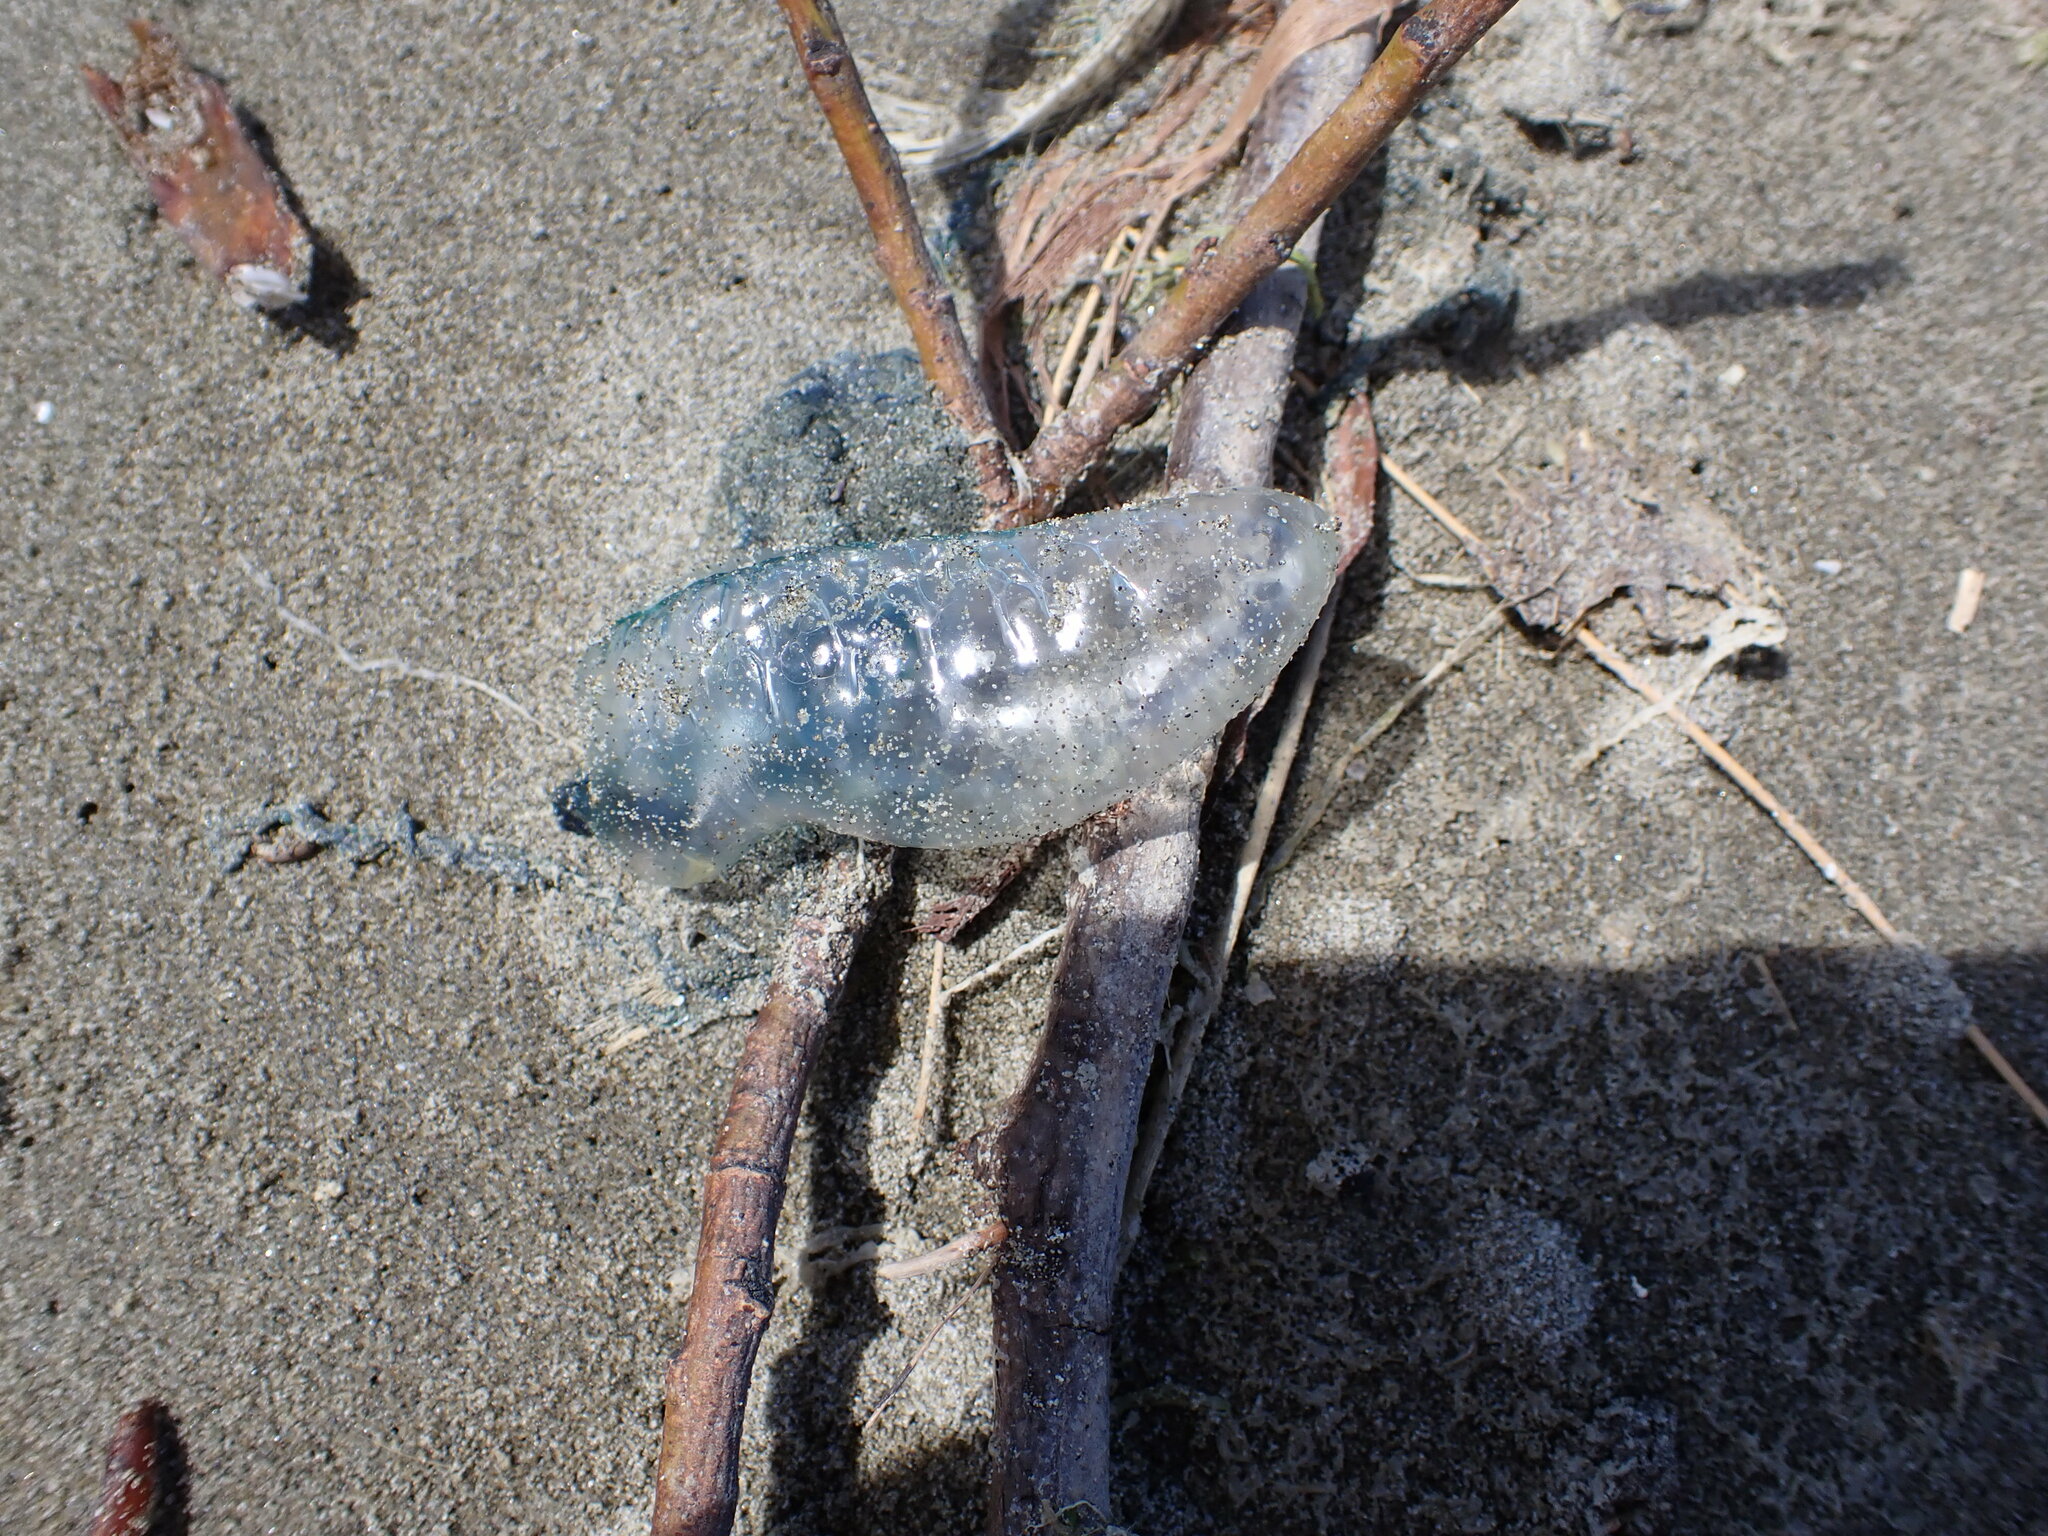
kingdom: Animalia
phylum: Cnidaria
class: Hydrozoa
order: Siphonophorae
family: Physaliidae
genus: Physalia
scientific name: Physalia physalis
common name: Portuguese man-of-war
